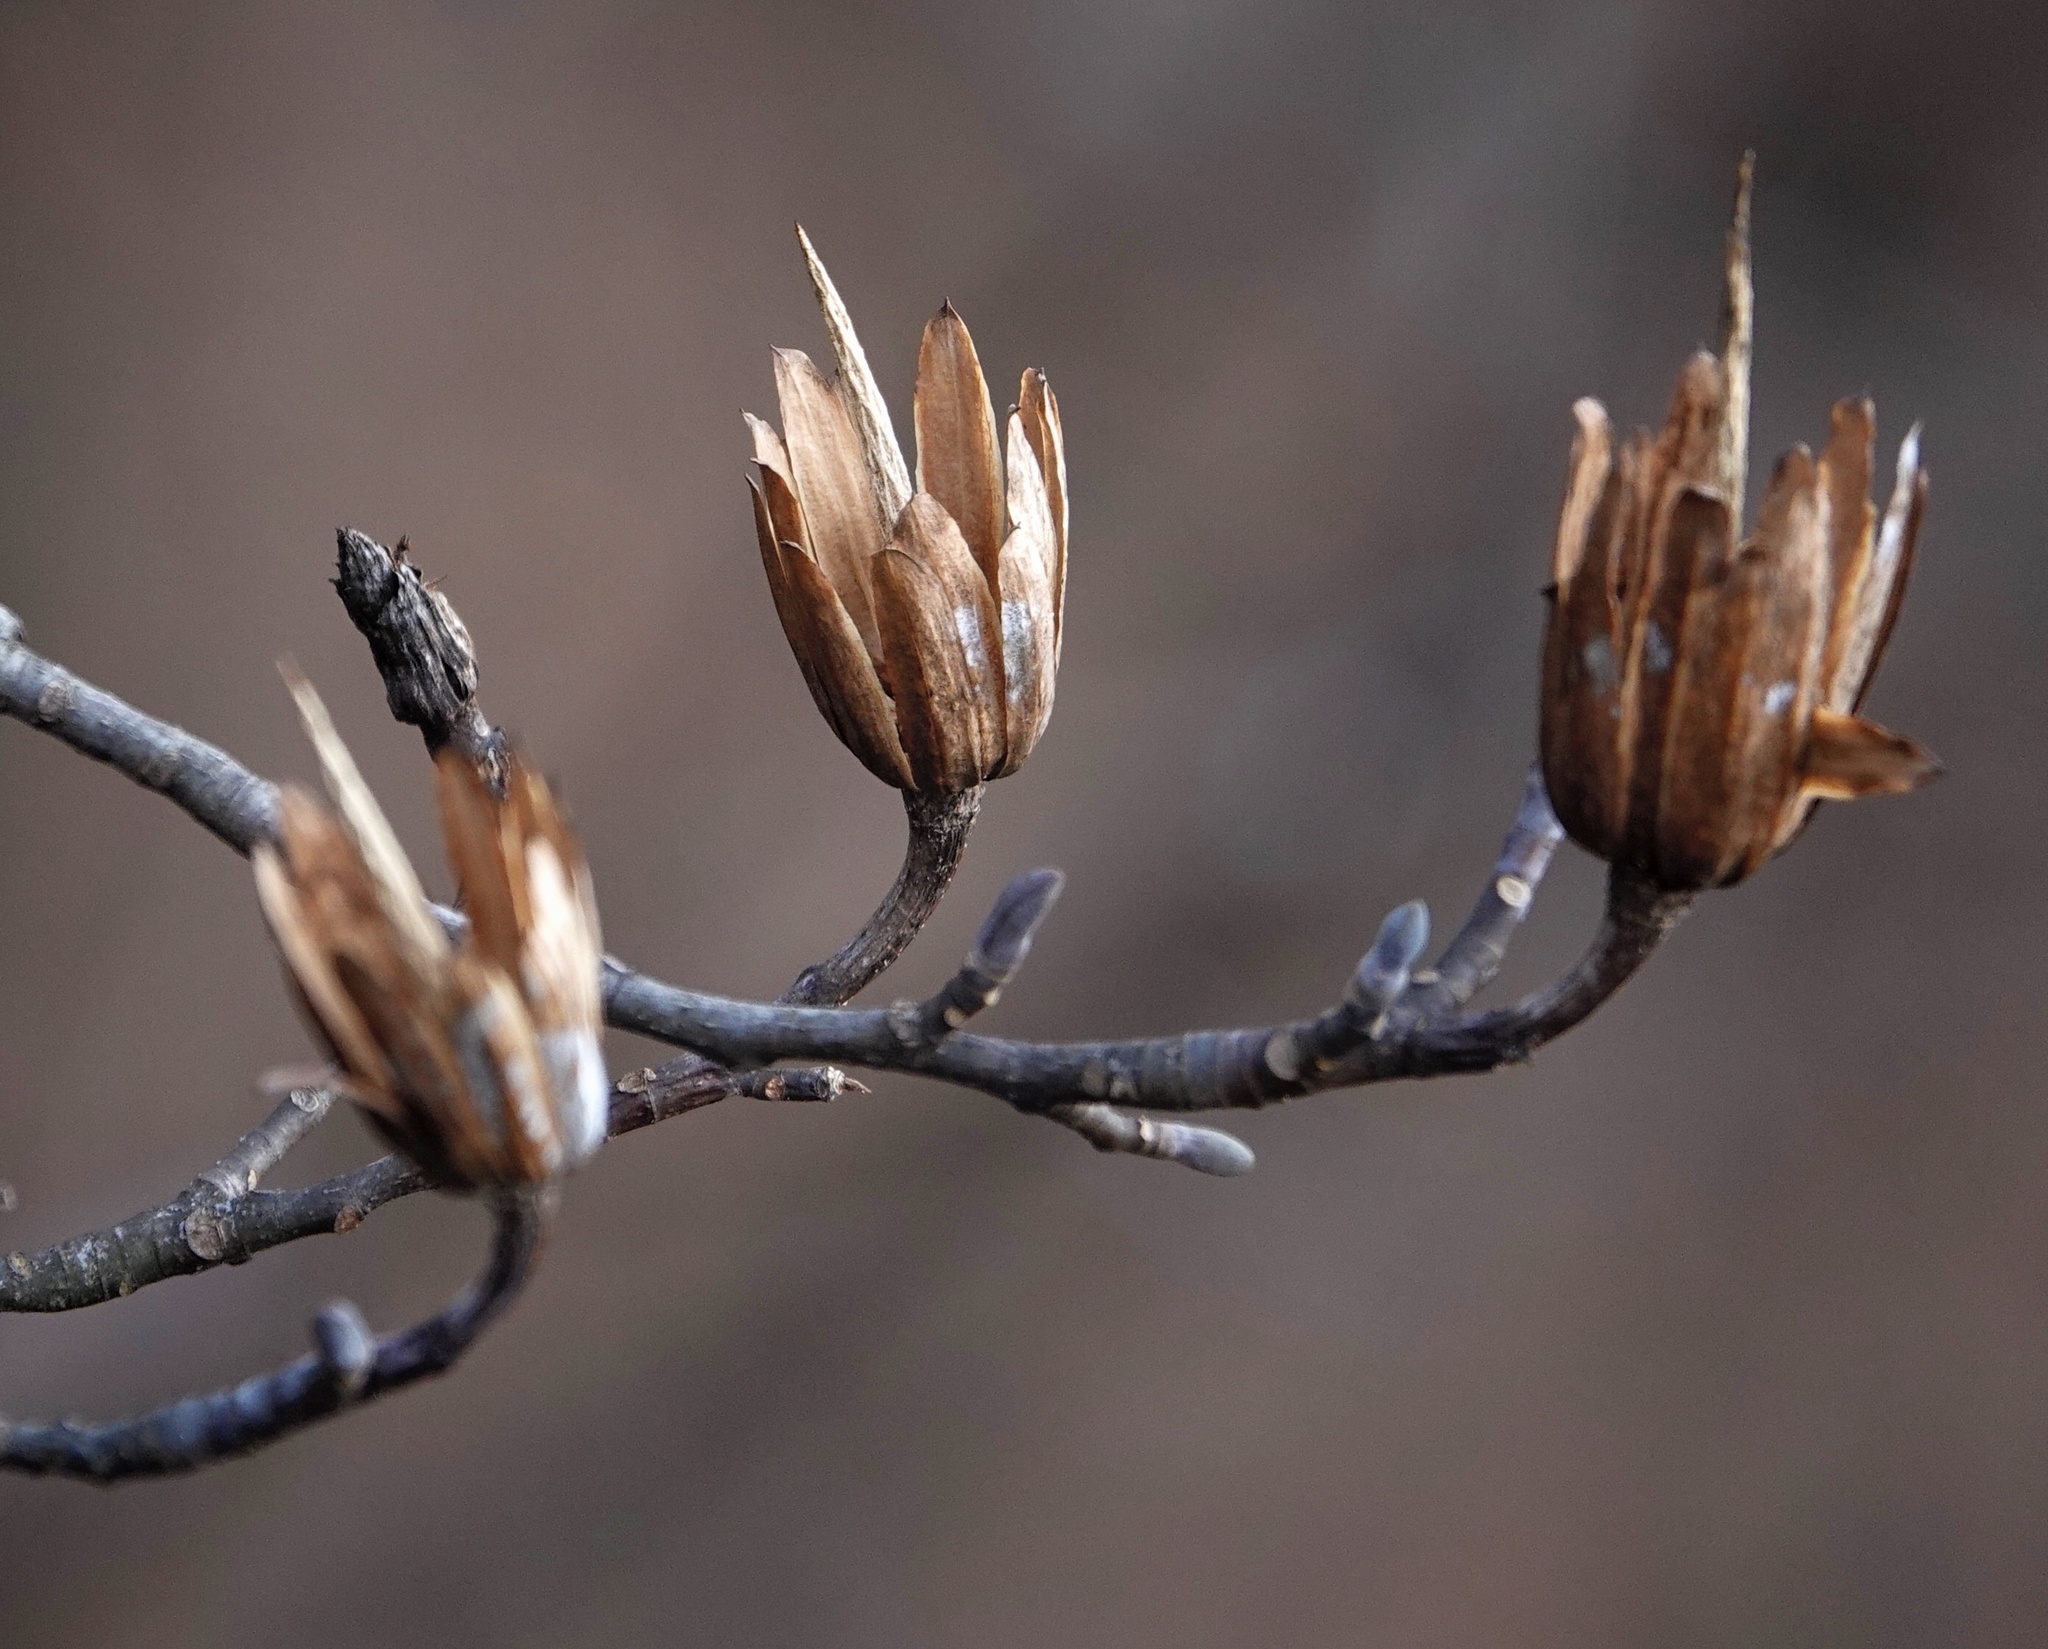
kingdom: Plantae
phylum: Tracheophyta
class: Magnoliopsida
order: Magnoliales
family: Magnoliaceae
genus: Liriodendron
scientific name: Liriodendron tulipifera
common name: Tulip tree
